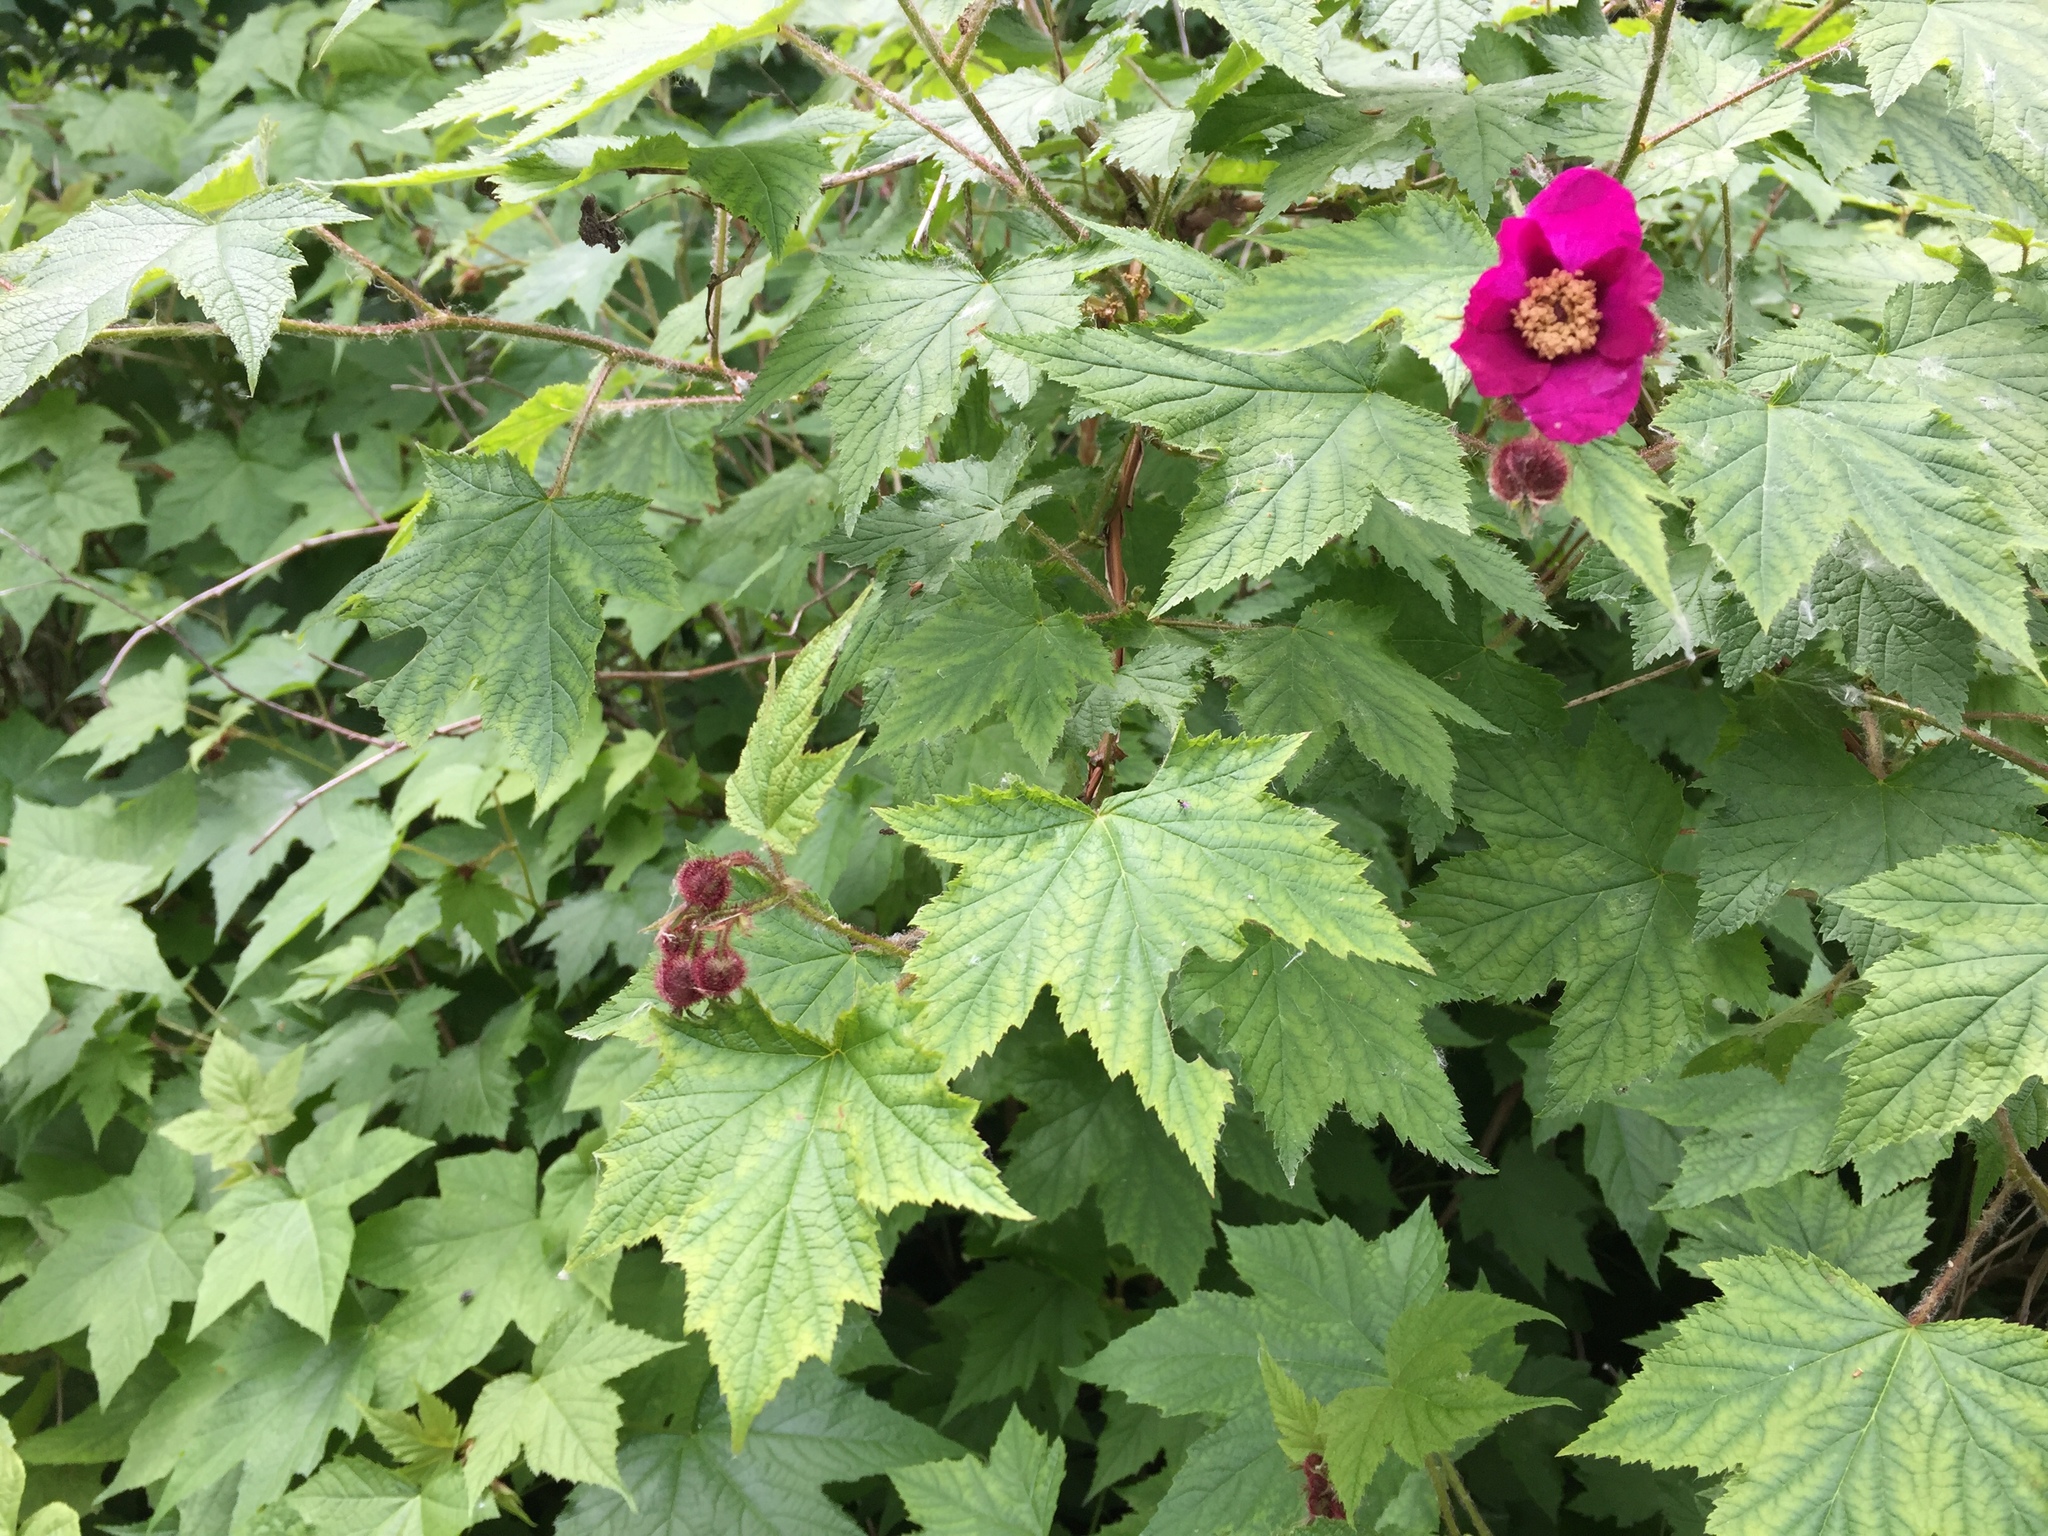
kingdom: Plantae
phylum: Tracheophyta
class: Magnoliopsida
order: Rosales
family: Rosaceae
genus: Rubus
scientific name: Rubus odoratus
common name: Purple-flowered raspberry
